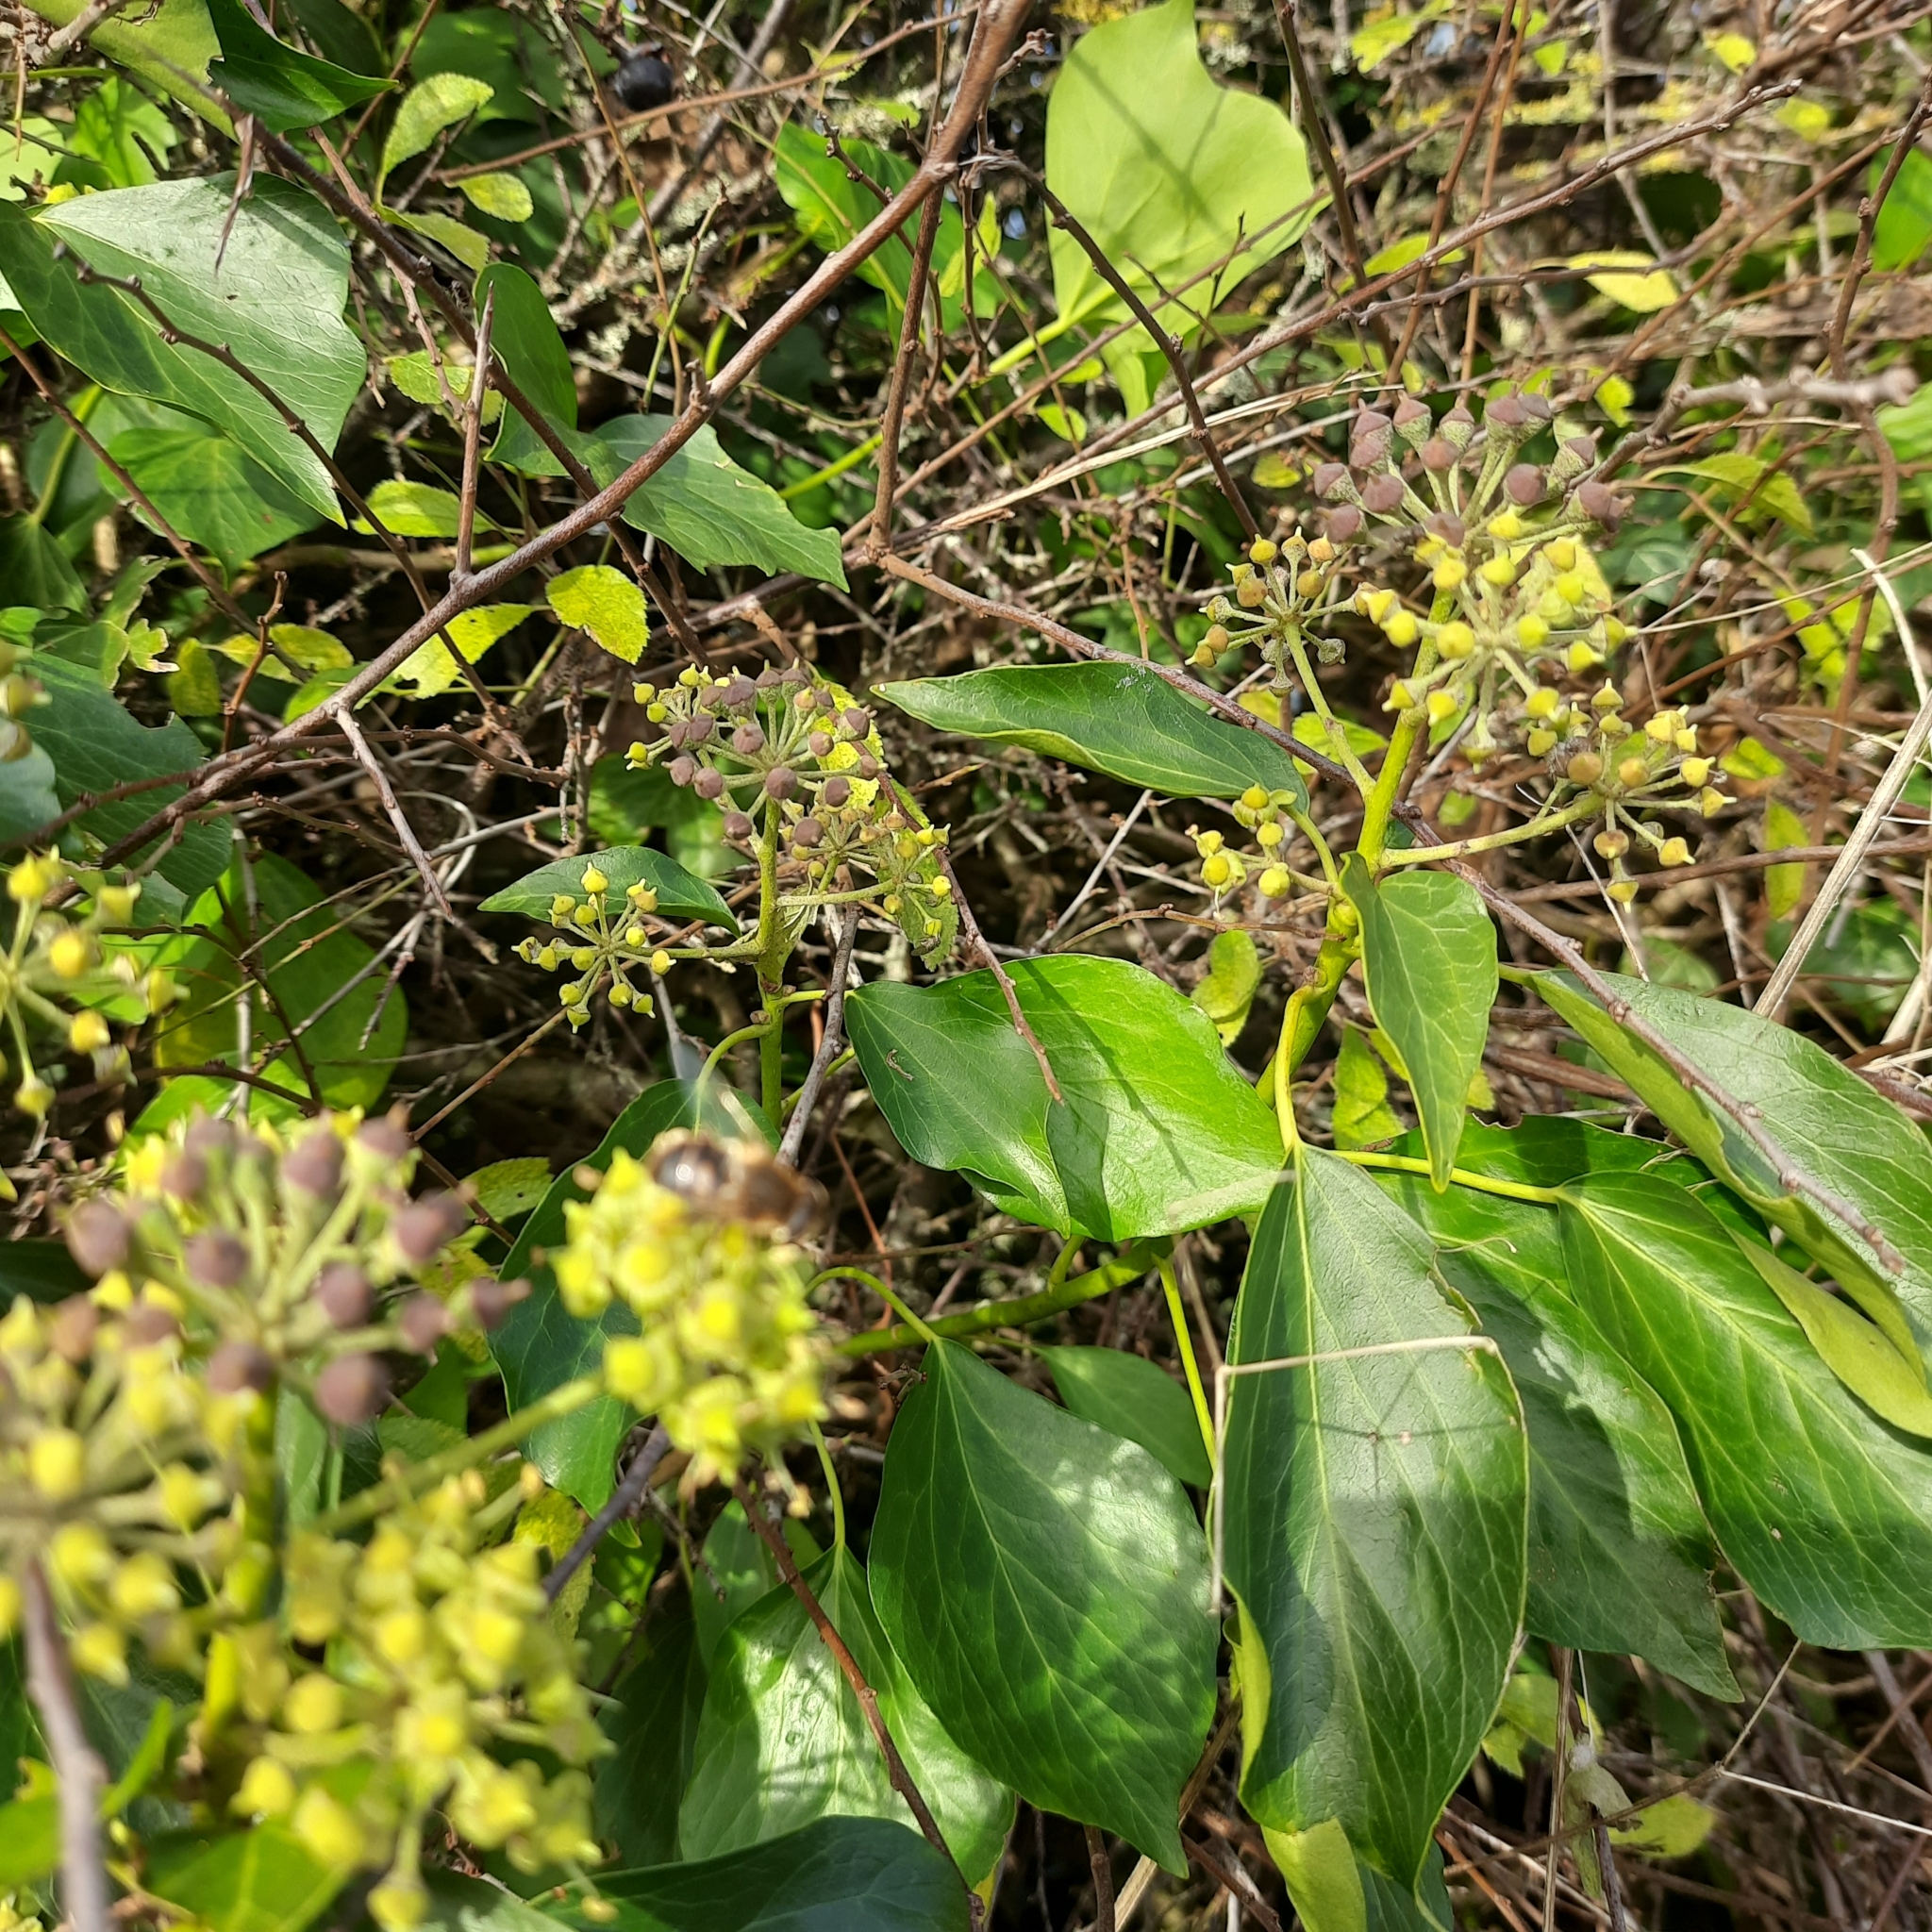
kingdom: Animalia
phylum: Arthropoda
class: Insecta
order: Diptera
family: Syrphidae
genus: Eristalis
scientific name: Eristalis
